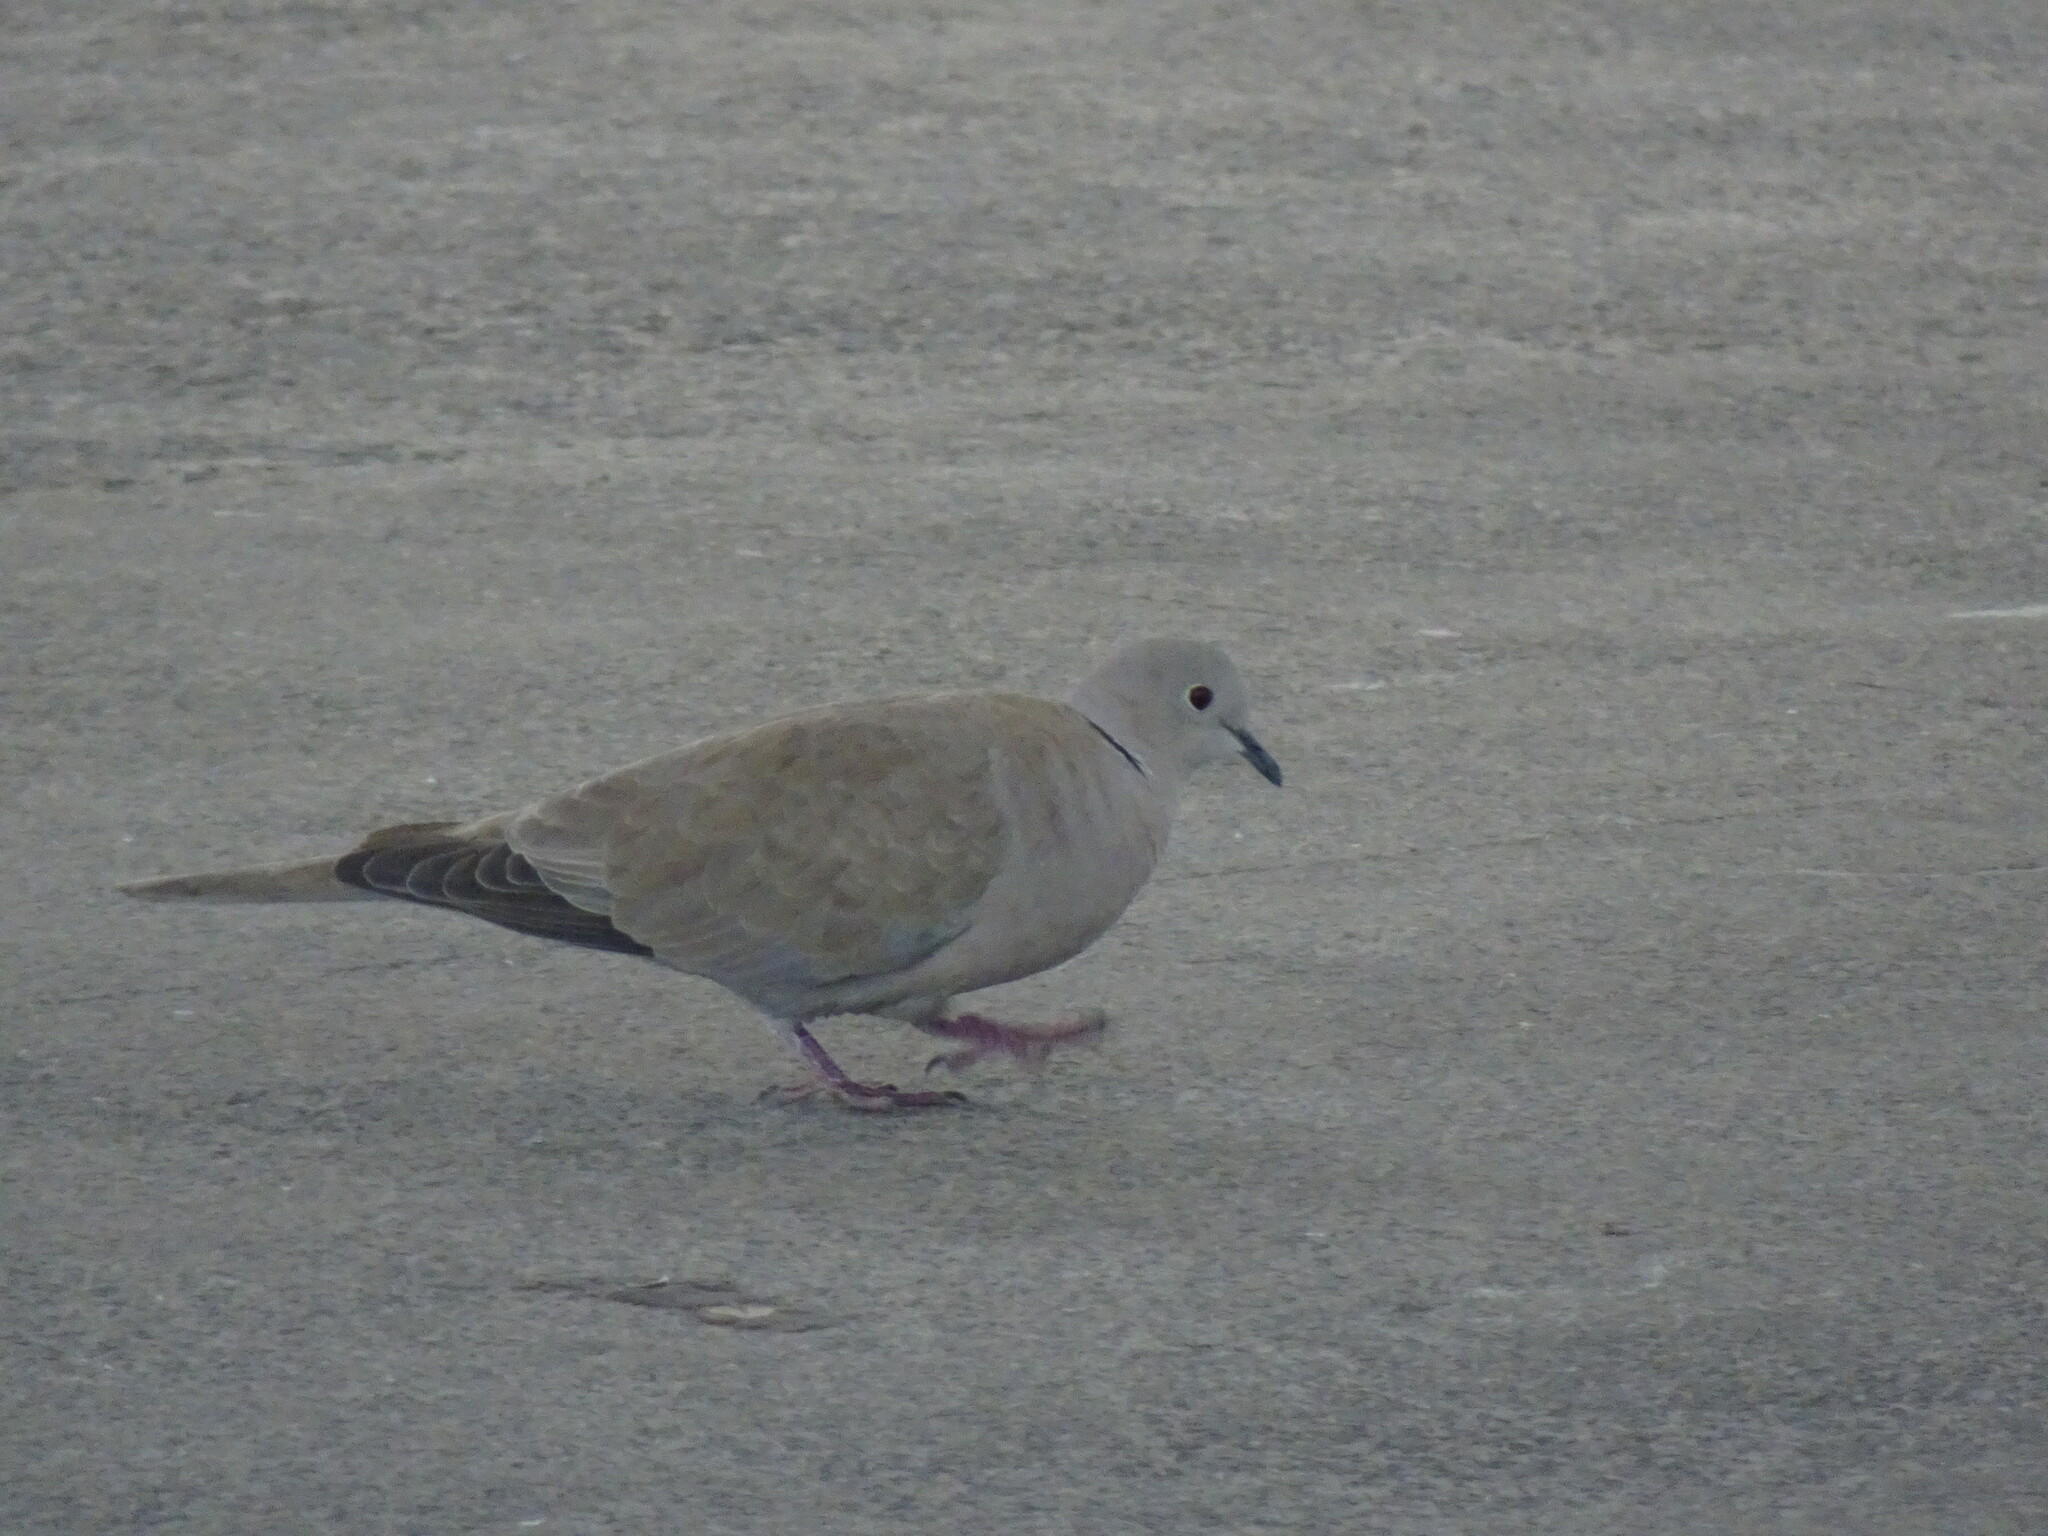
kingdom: Animalia
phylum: Chordata
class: Aves
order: Columbiformes
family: Columbidae
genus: Streptopelia
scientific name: Streptopelia decaocto
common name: Eurasian collared dove
